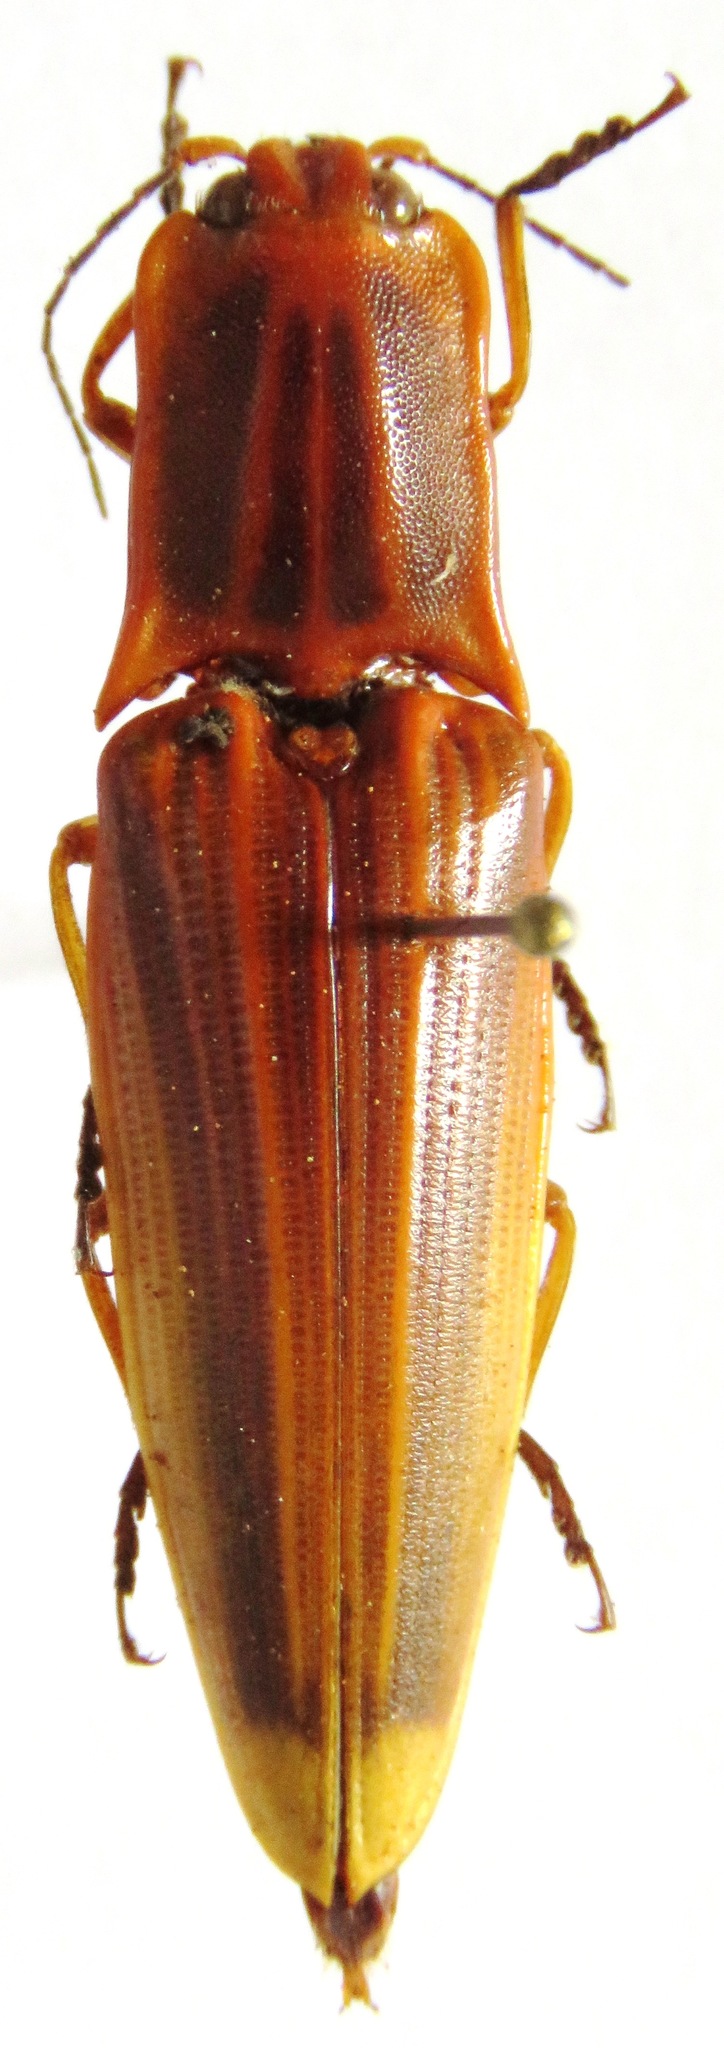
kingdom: Animalia
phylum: Arthropoda
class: Insecta
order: Coleoptera
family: Elateridae
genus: Semiotus
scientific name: Semiotus ligneus
